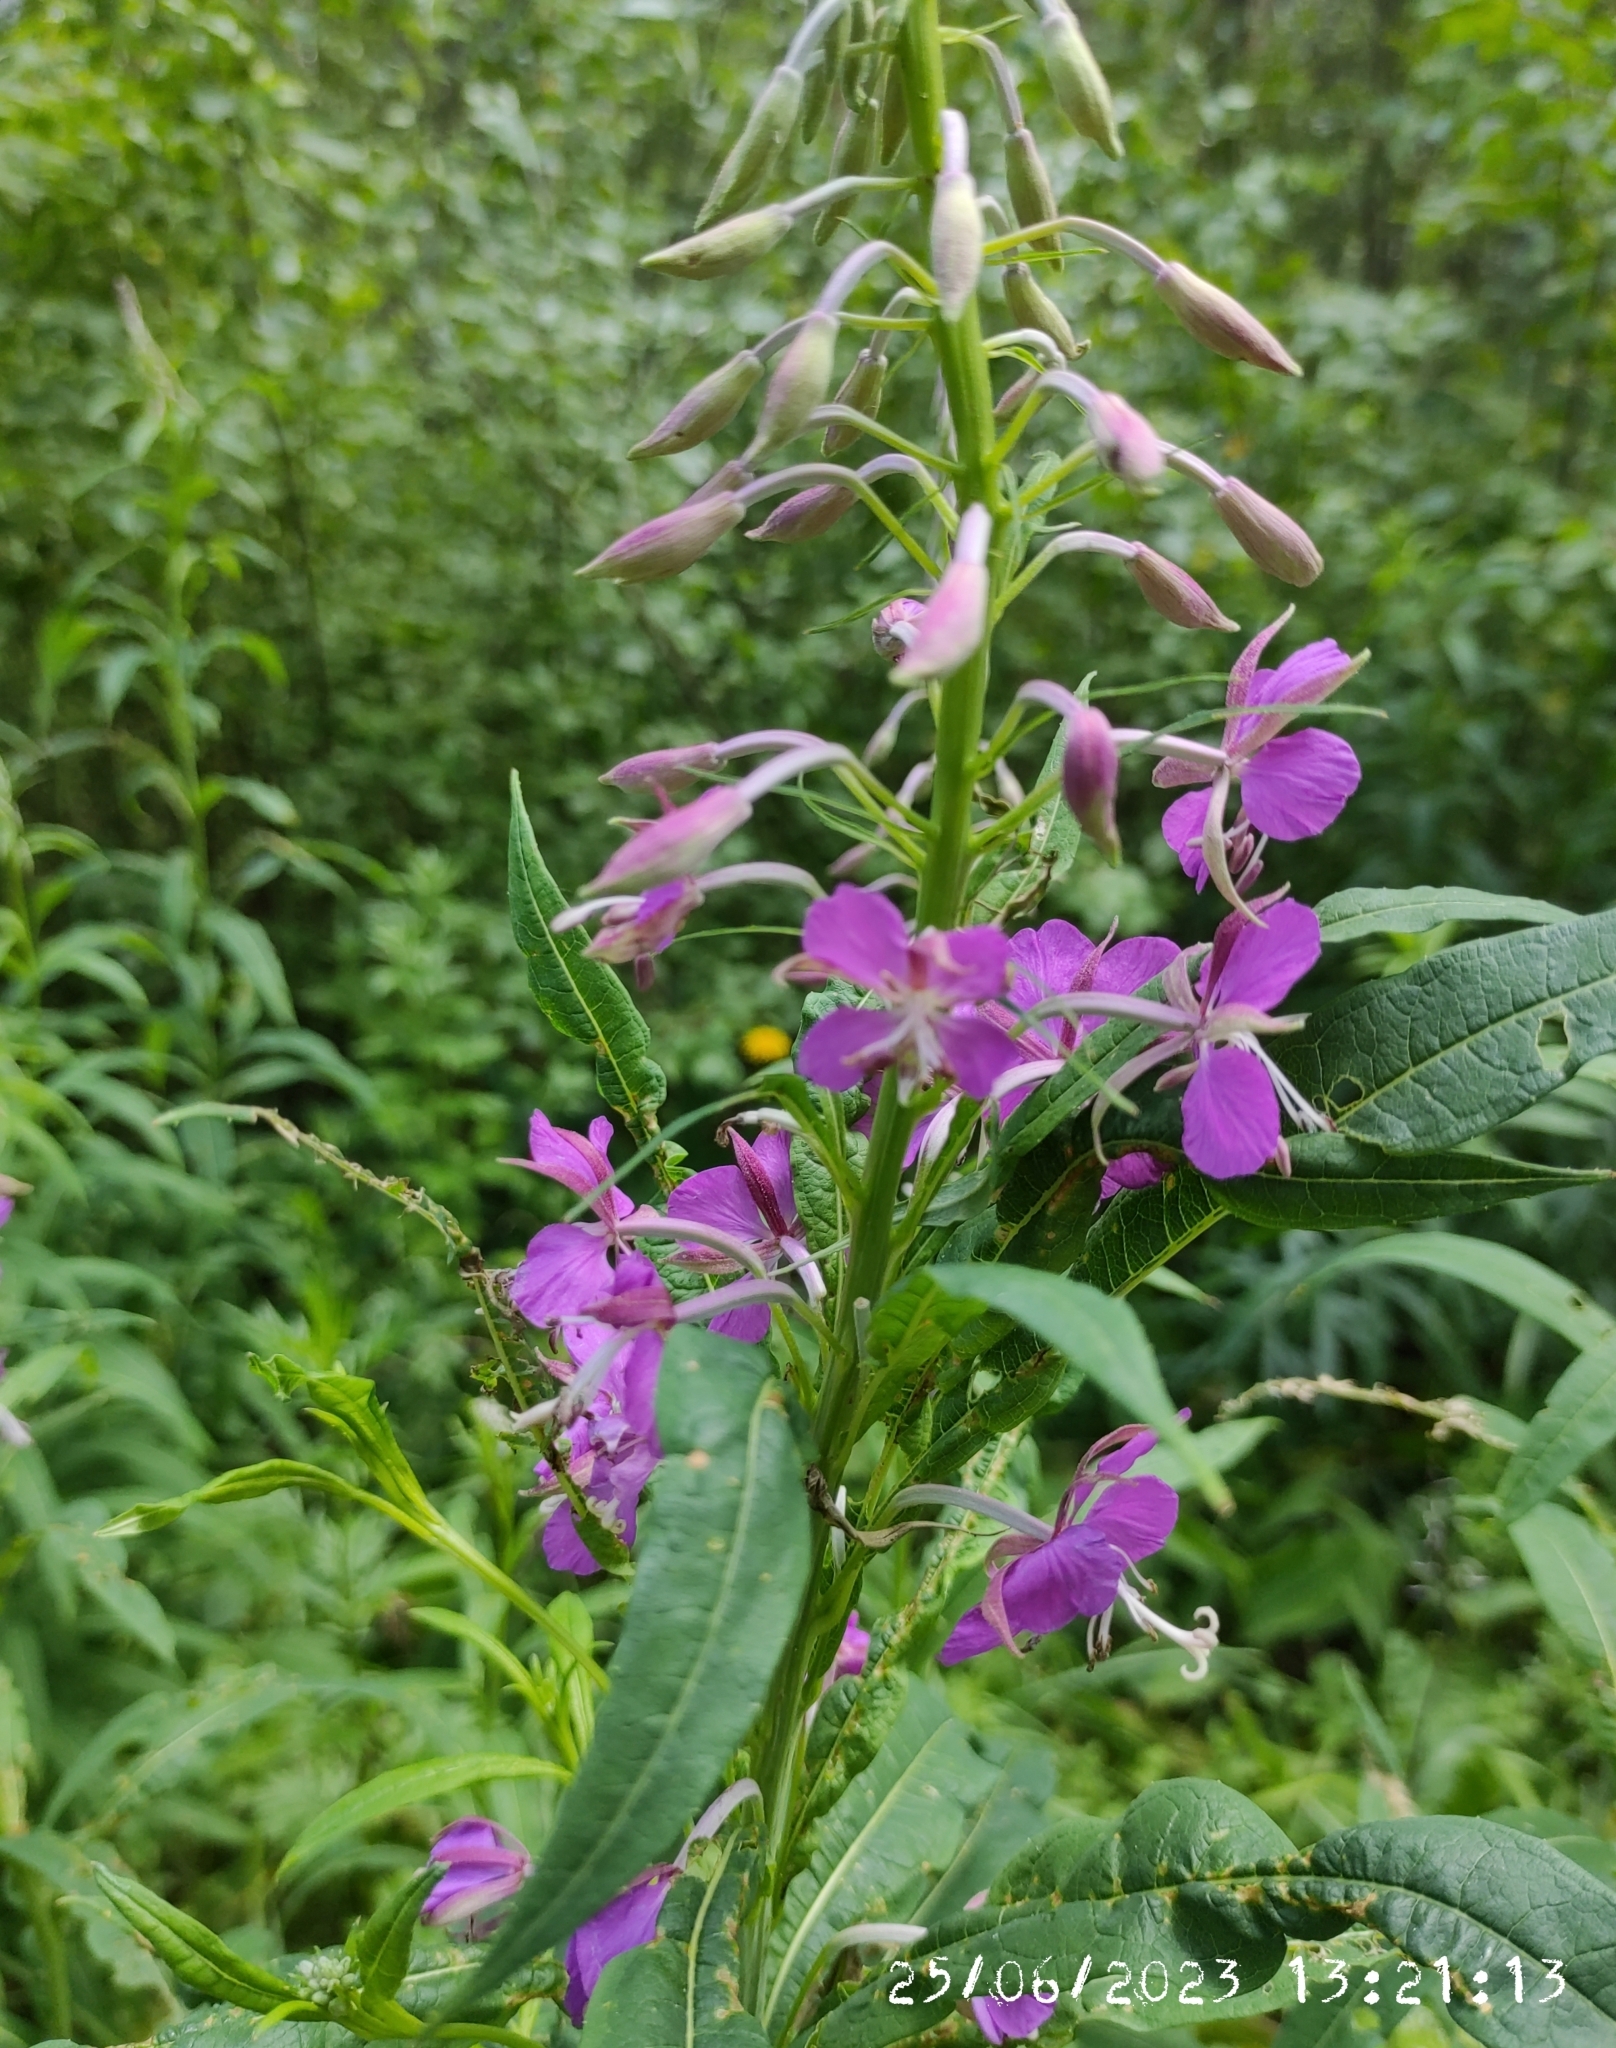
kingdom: Plantae
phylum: Tracheophyta
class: Magnoliopsida
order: Myrtales
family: Onagraceae
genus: Chamaenerion
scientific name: Chamaenerion angustifolium
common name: Fireweed
